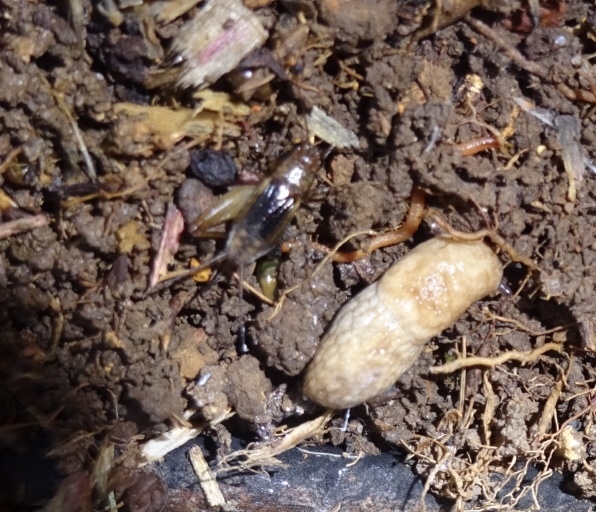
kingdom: Animalia
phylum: Mollusca
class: Gastropoda
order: Stylommatophora
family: Agriolimacidae
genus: Deroceras
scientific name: Deroceras reticulatum
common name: Gray field slug
